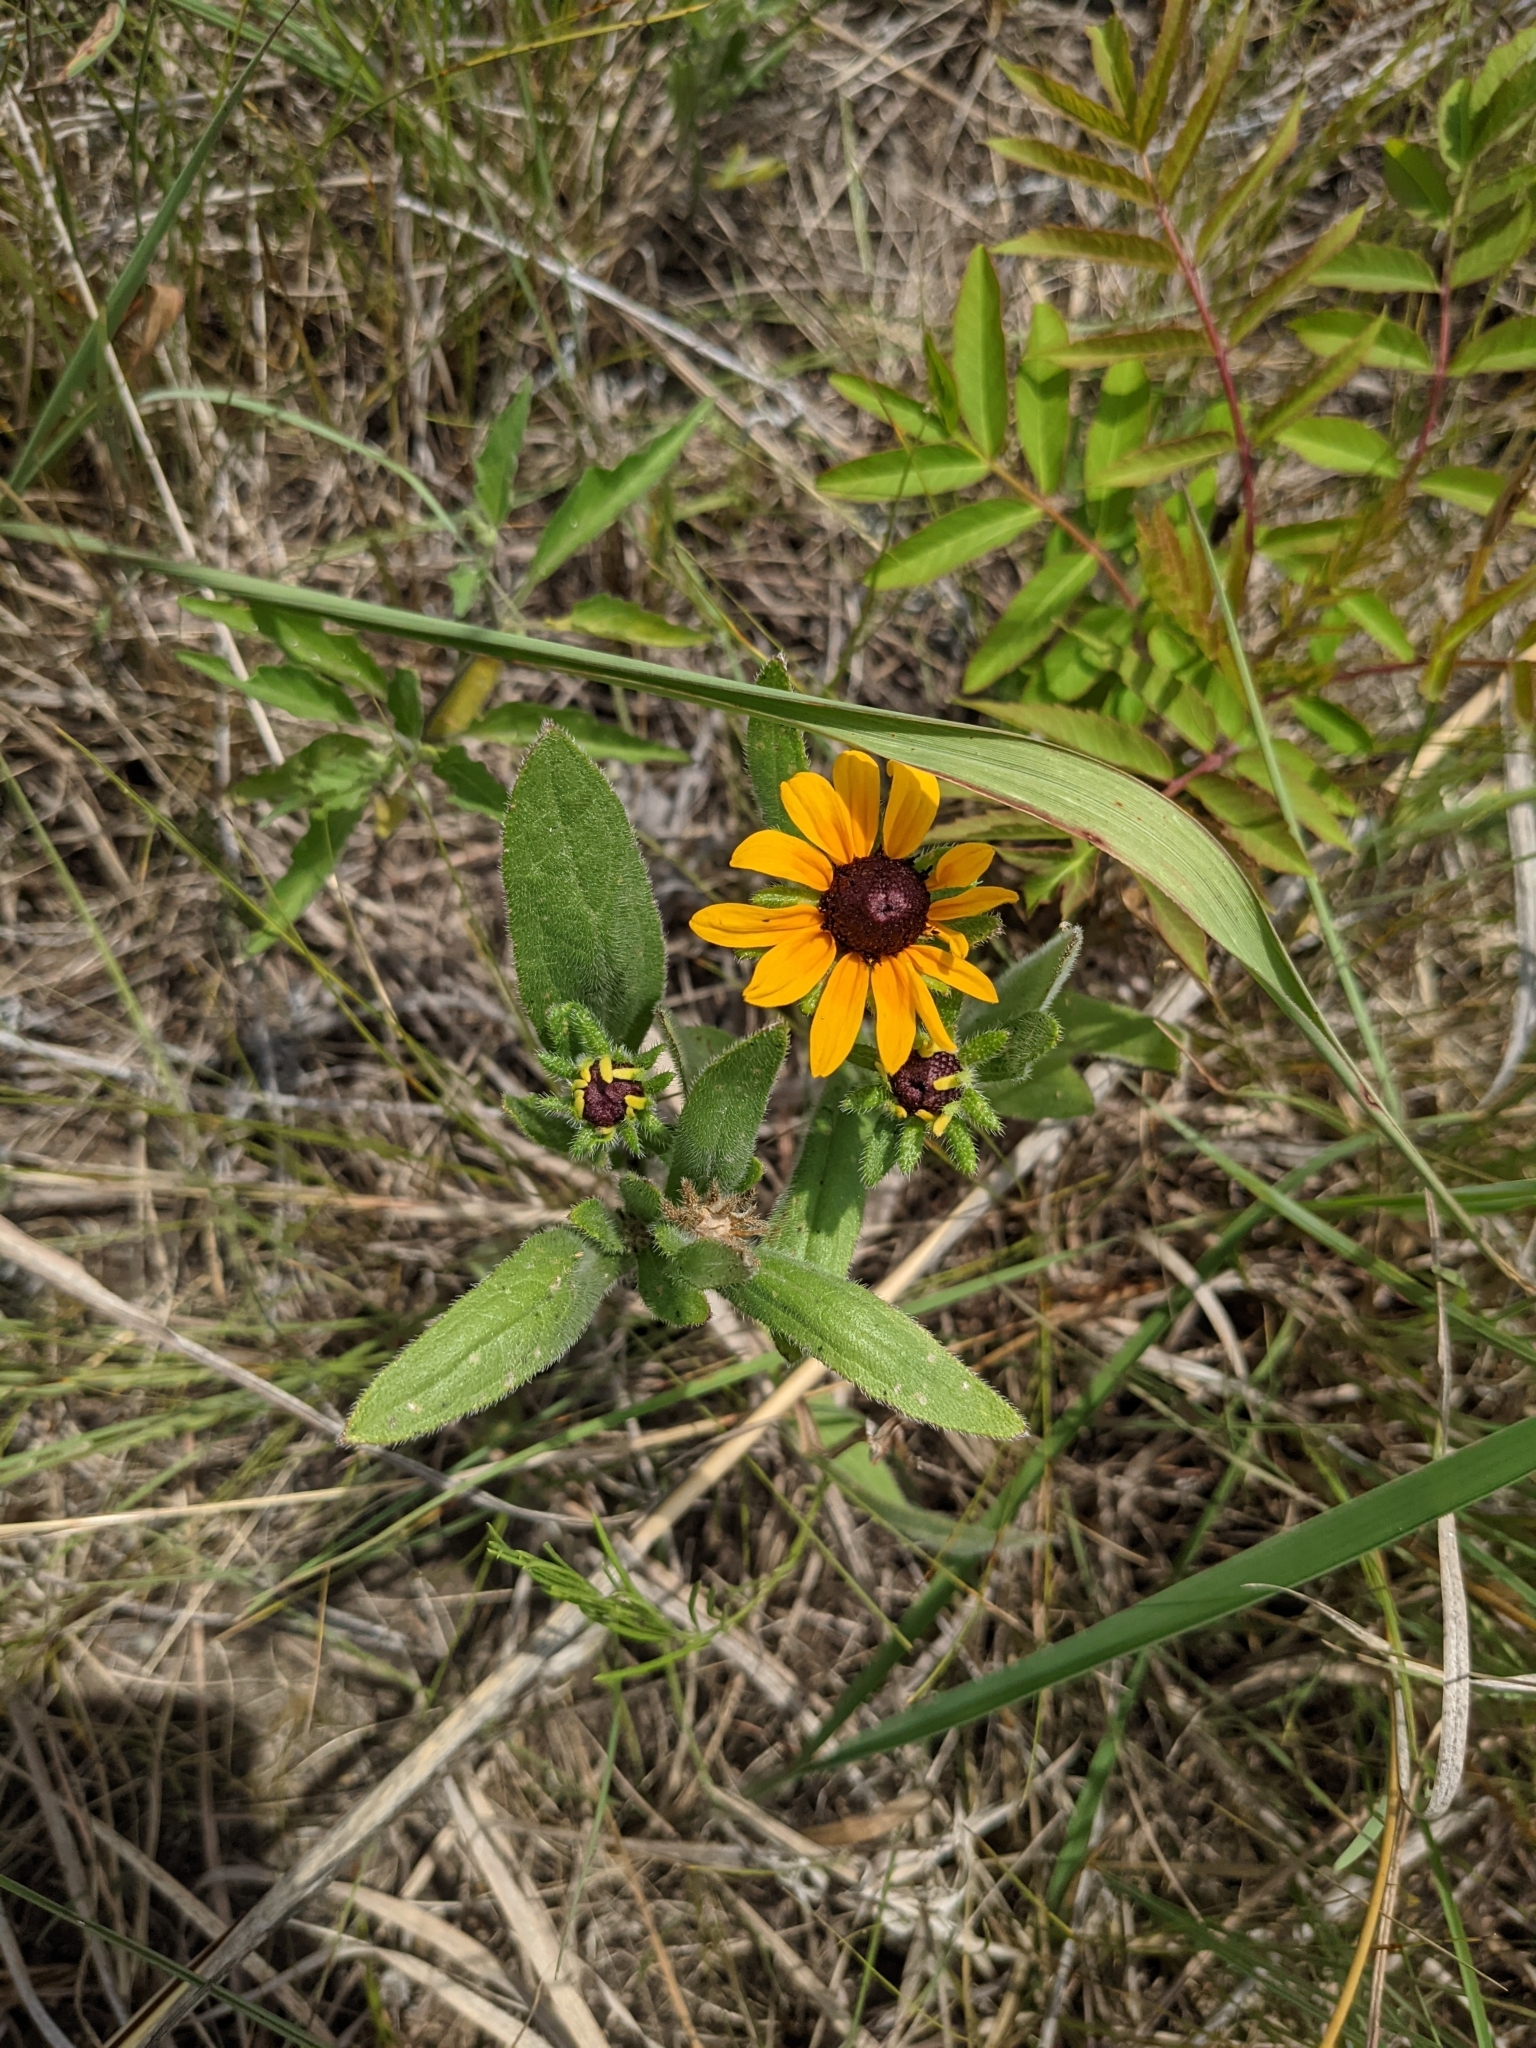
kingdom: Plantae
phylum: Tracheophyta
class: Magnoliopsida
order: Asterales
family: Asteraceae
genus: Rudbeckia
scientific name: Rudbeckia hirta
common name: Black-eyed-susan
